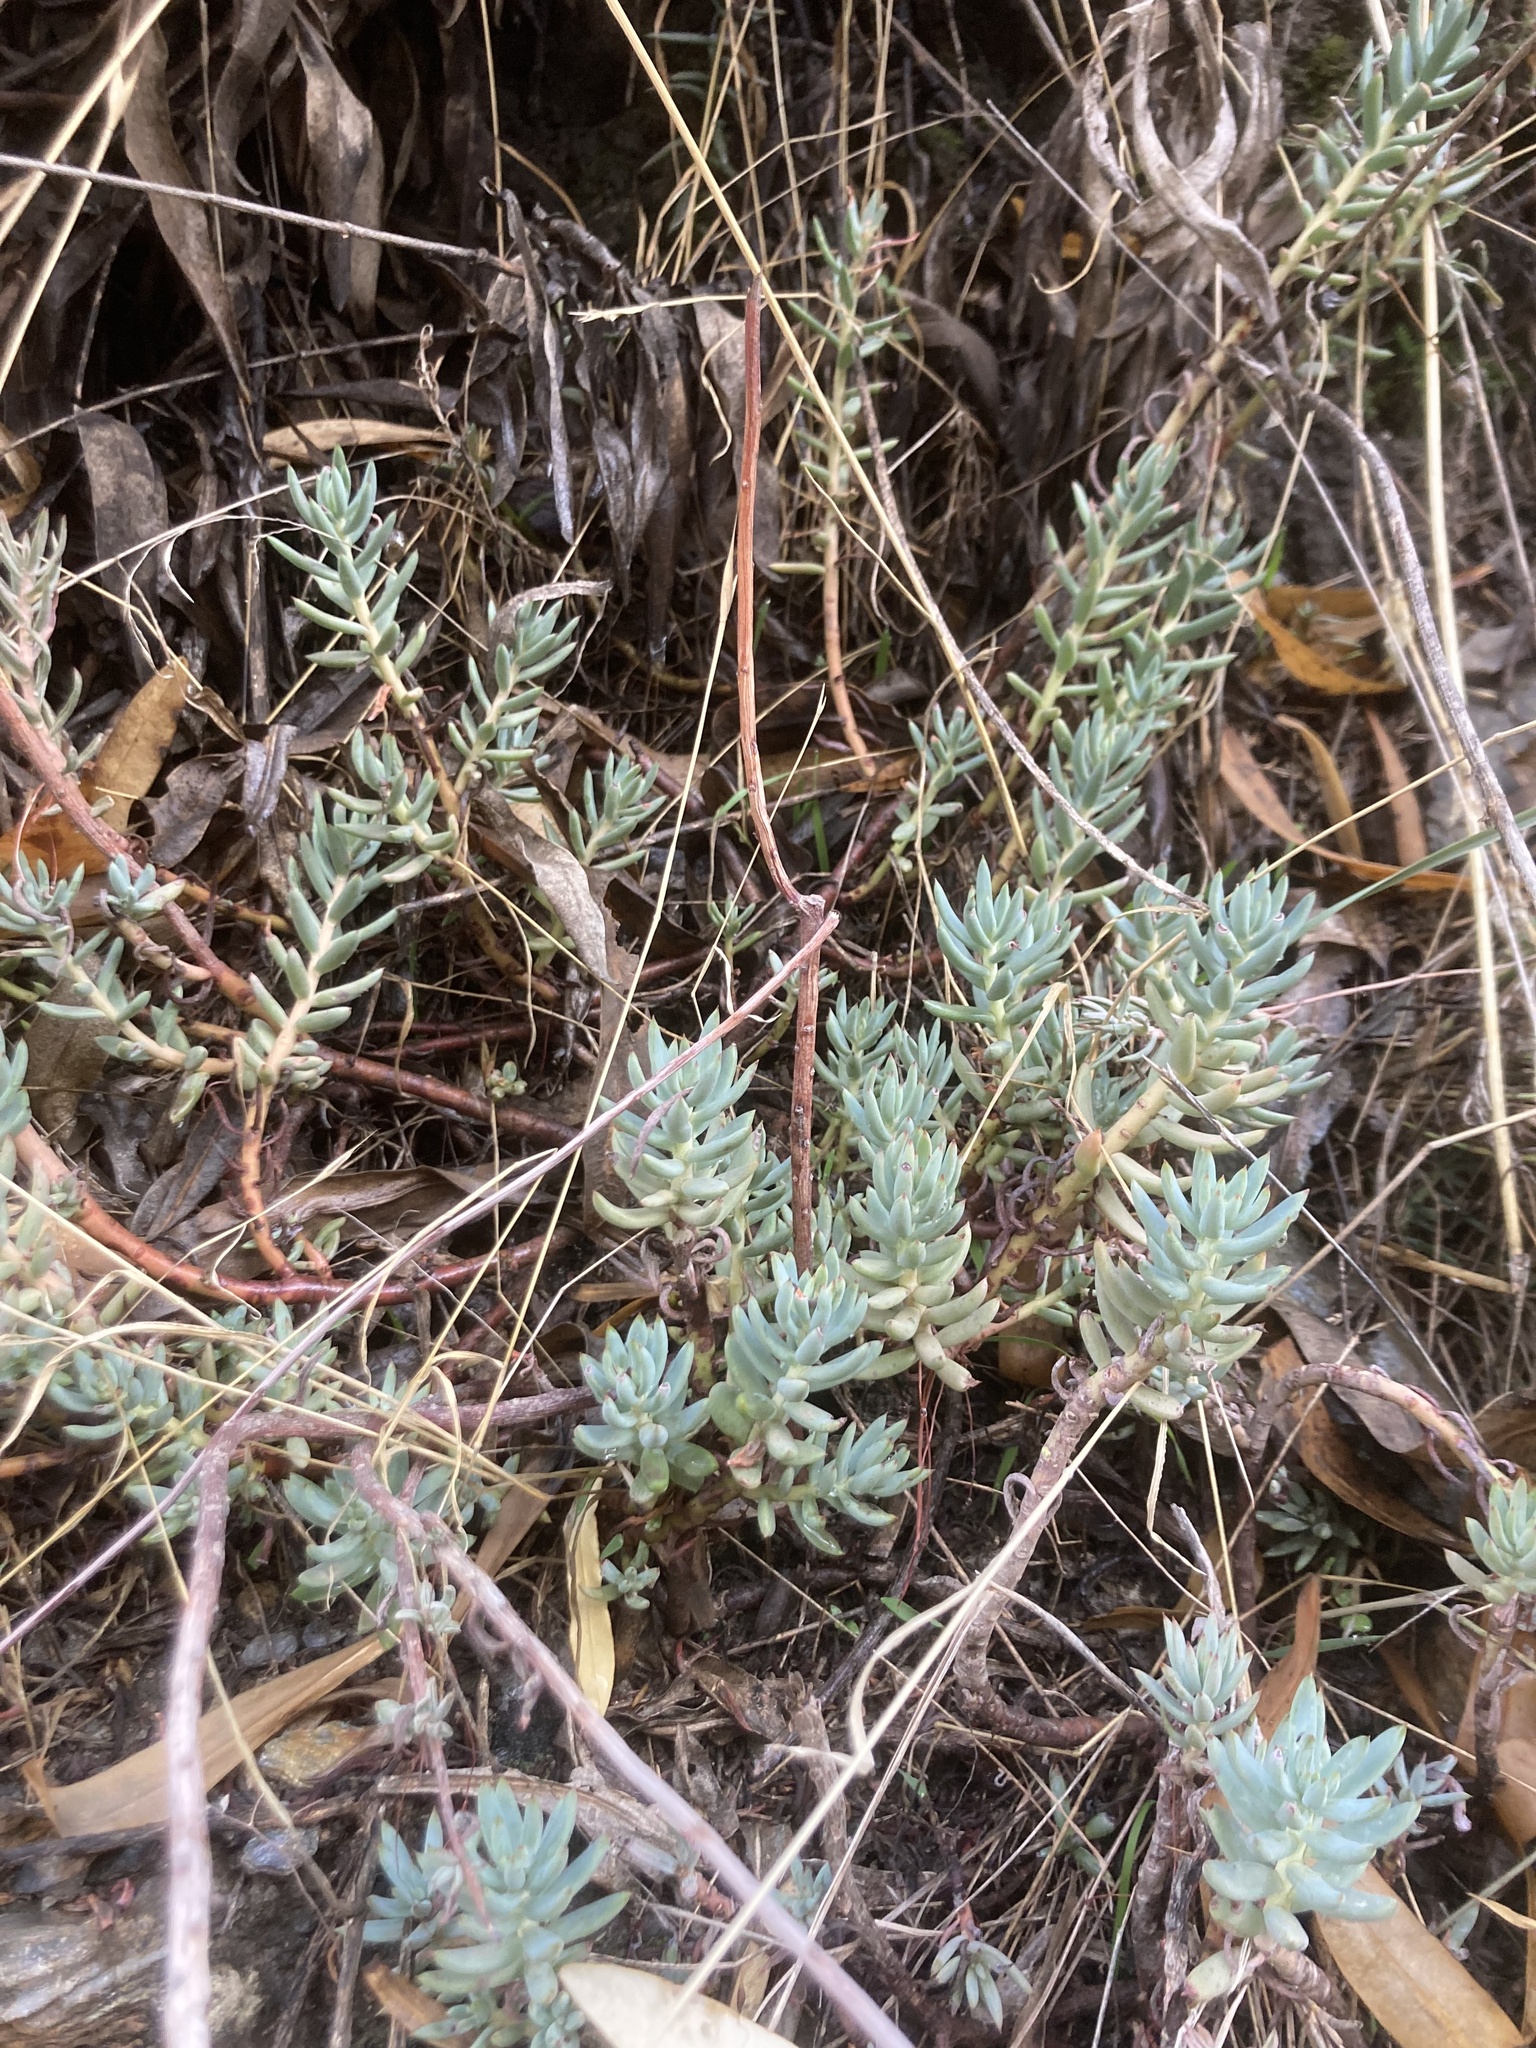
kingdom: Plantae
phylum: Tracheophyta
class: Magnoliopsida
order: Saxifragales
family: Crassulaceae
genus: Petrosedum
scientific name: Petrosedum sediforme
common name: Pale stonecrop
